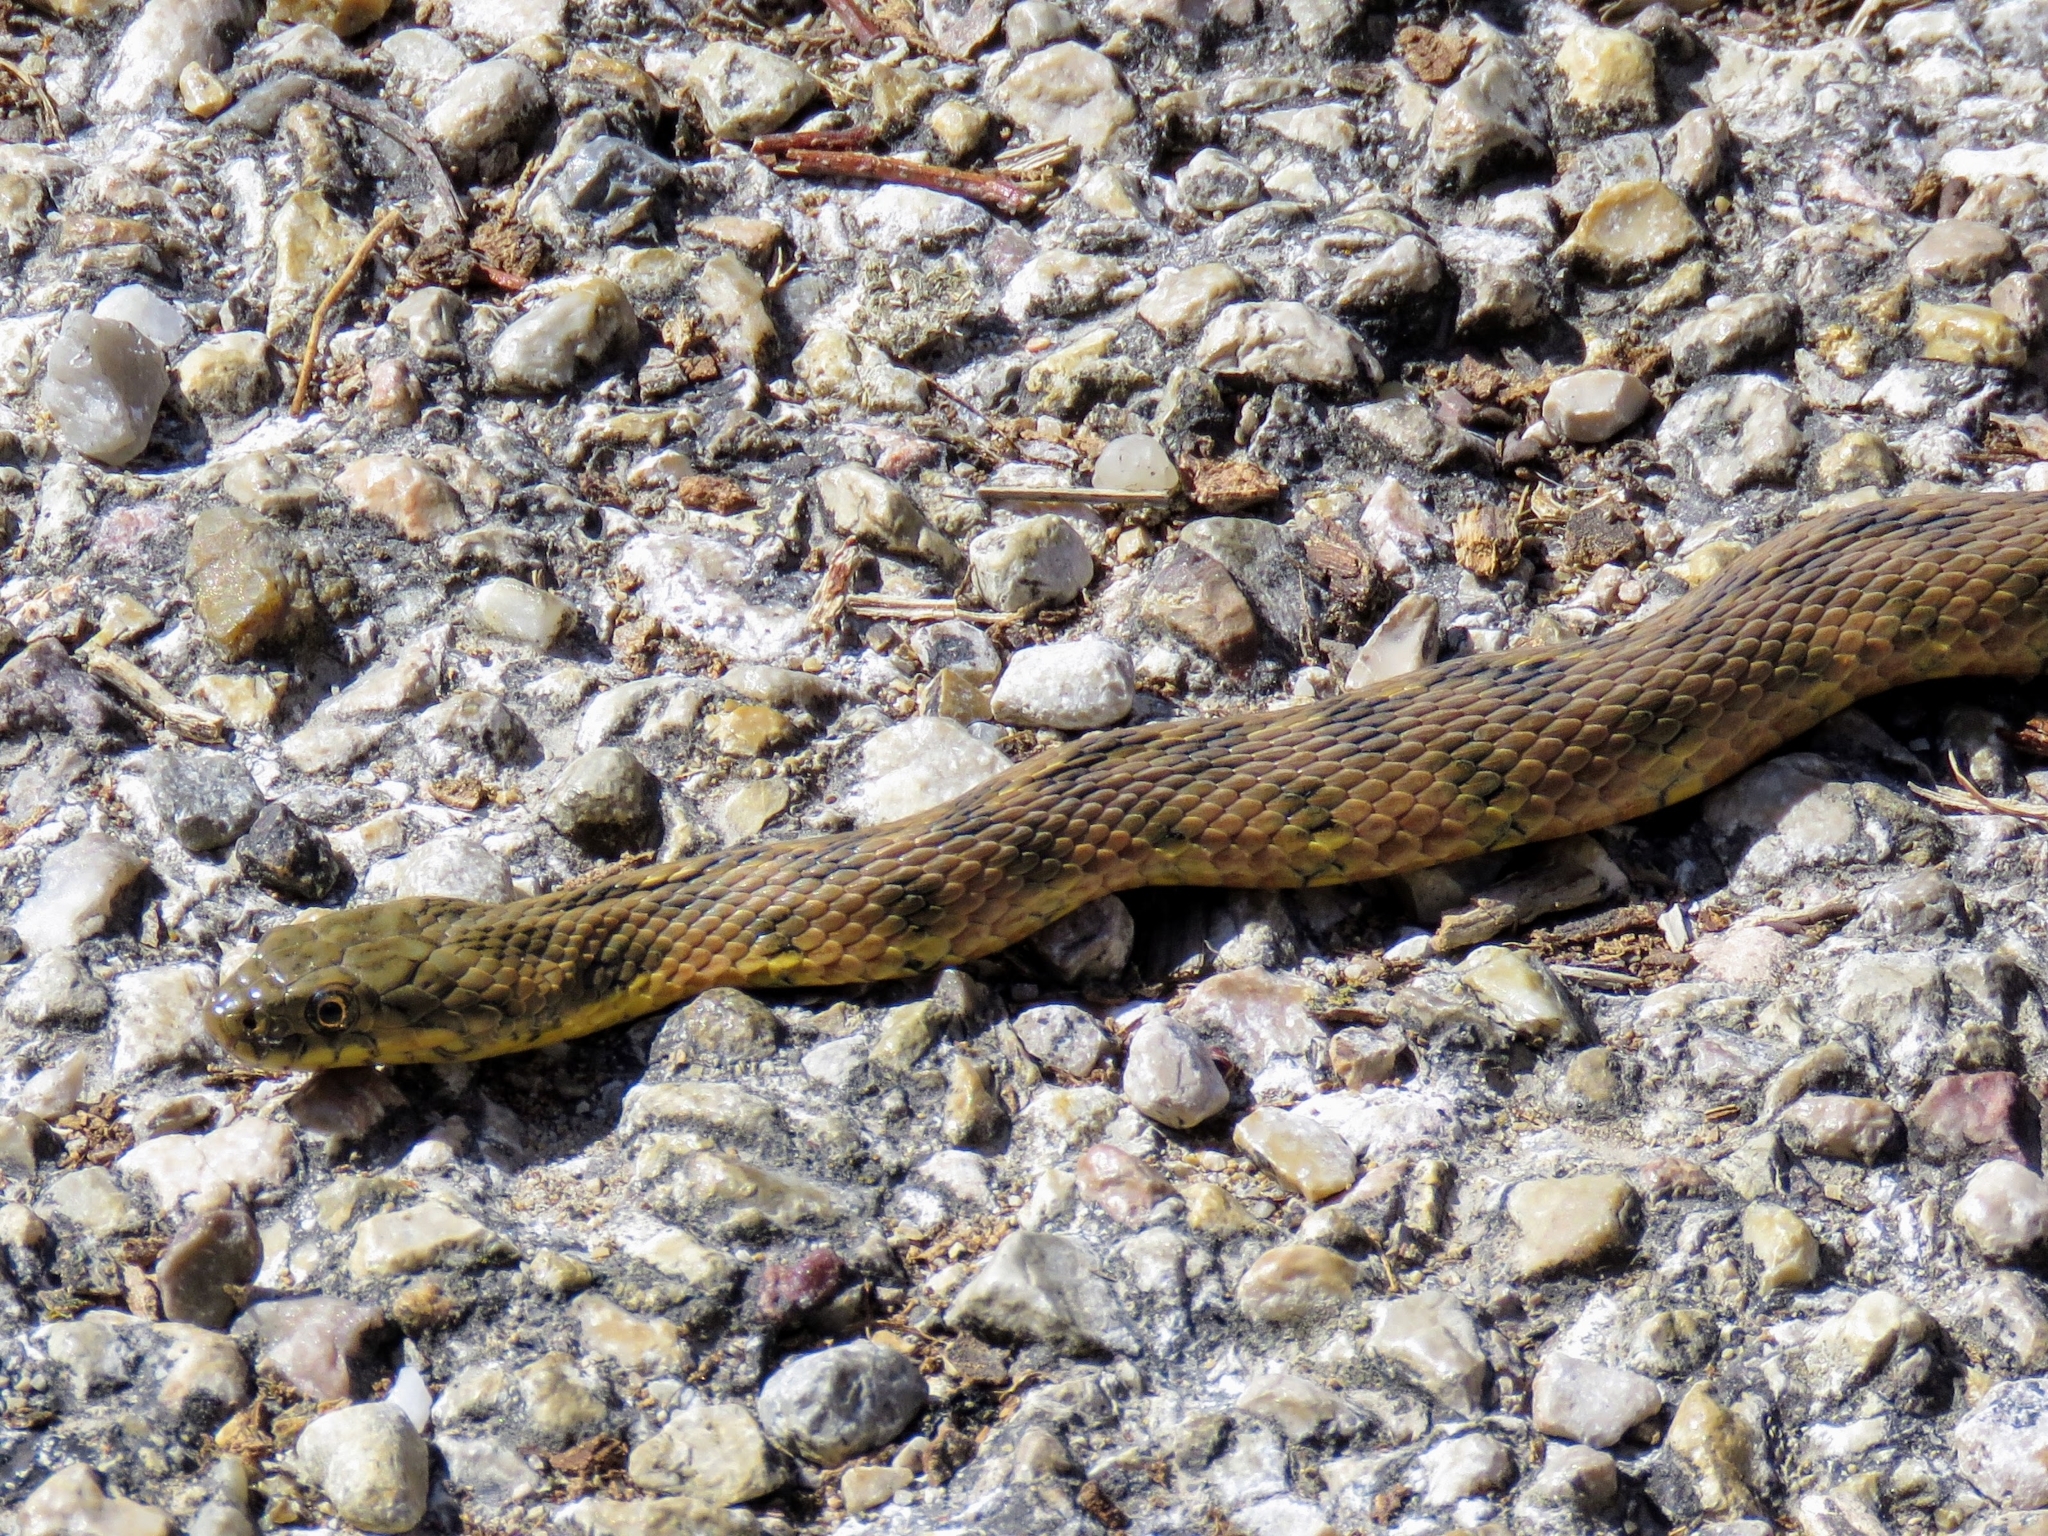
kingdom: Animalia
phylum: Chordata
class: Squamata
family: Colubridae
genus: Natrix
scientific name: Natrix maura
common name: Viperine water snake
